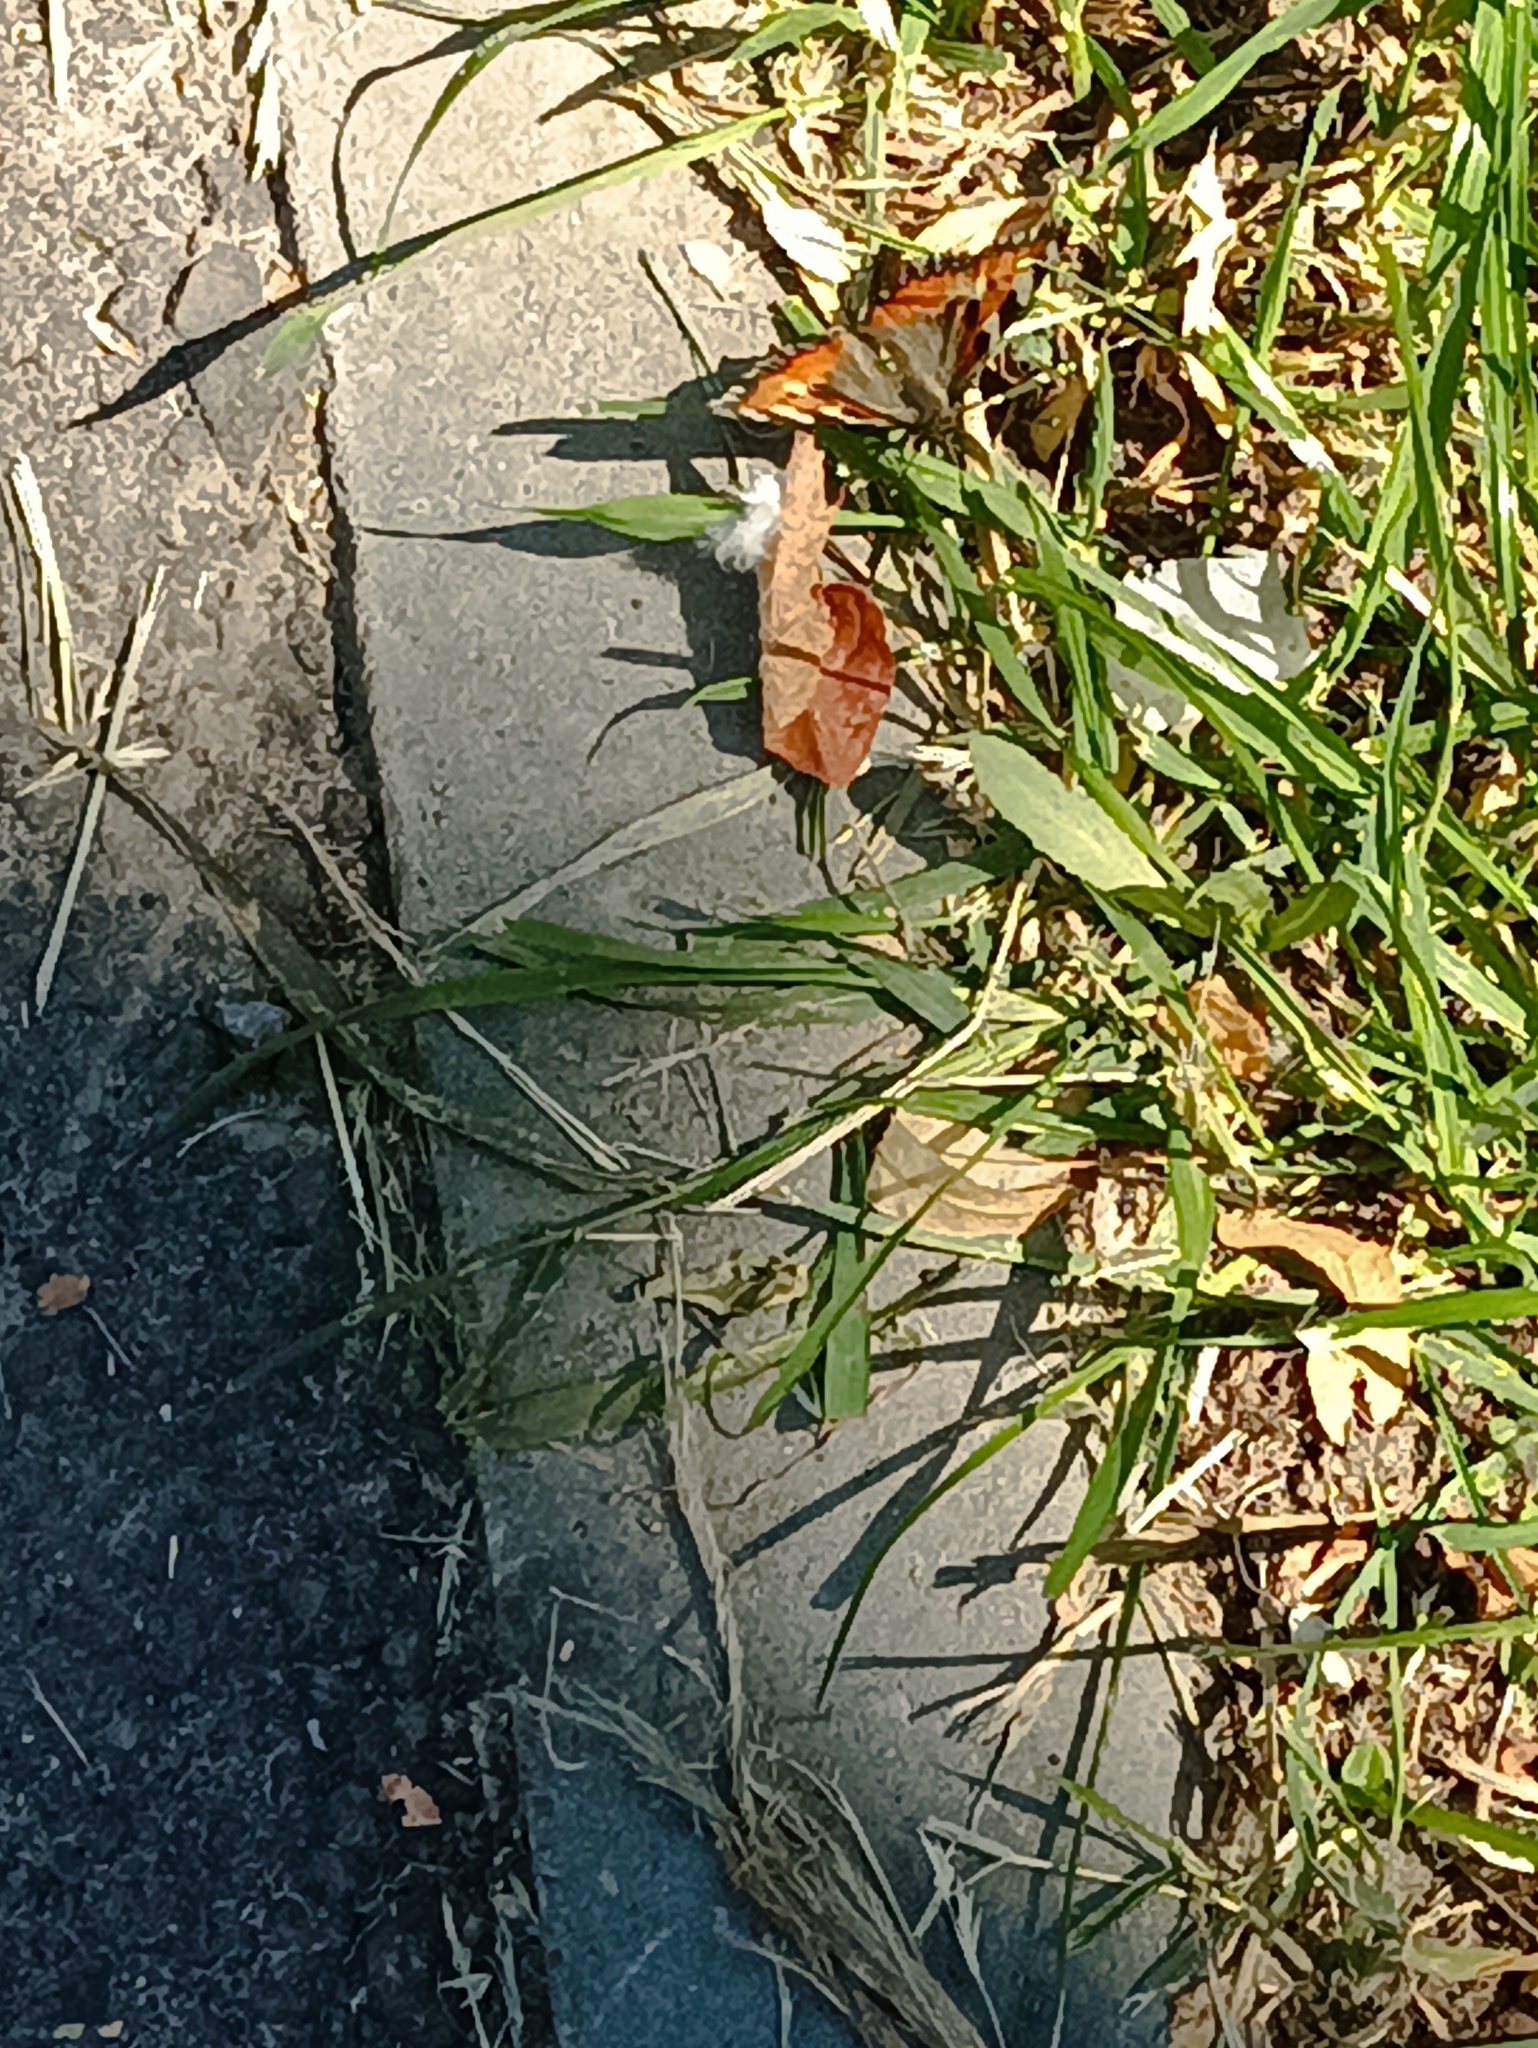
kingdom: Animalia
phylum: Arthropoda
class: Insecta
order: Lepidoptera
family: Nymphalidae
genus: Aglais
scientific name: Aglais urticae
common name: Small tortoiseshell
